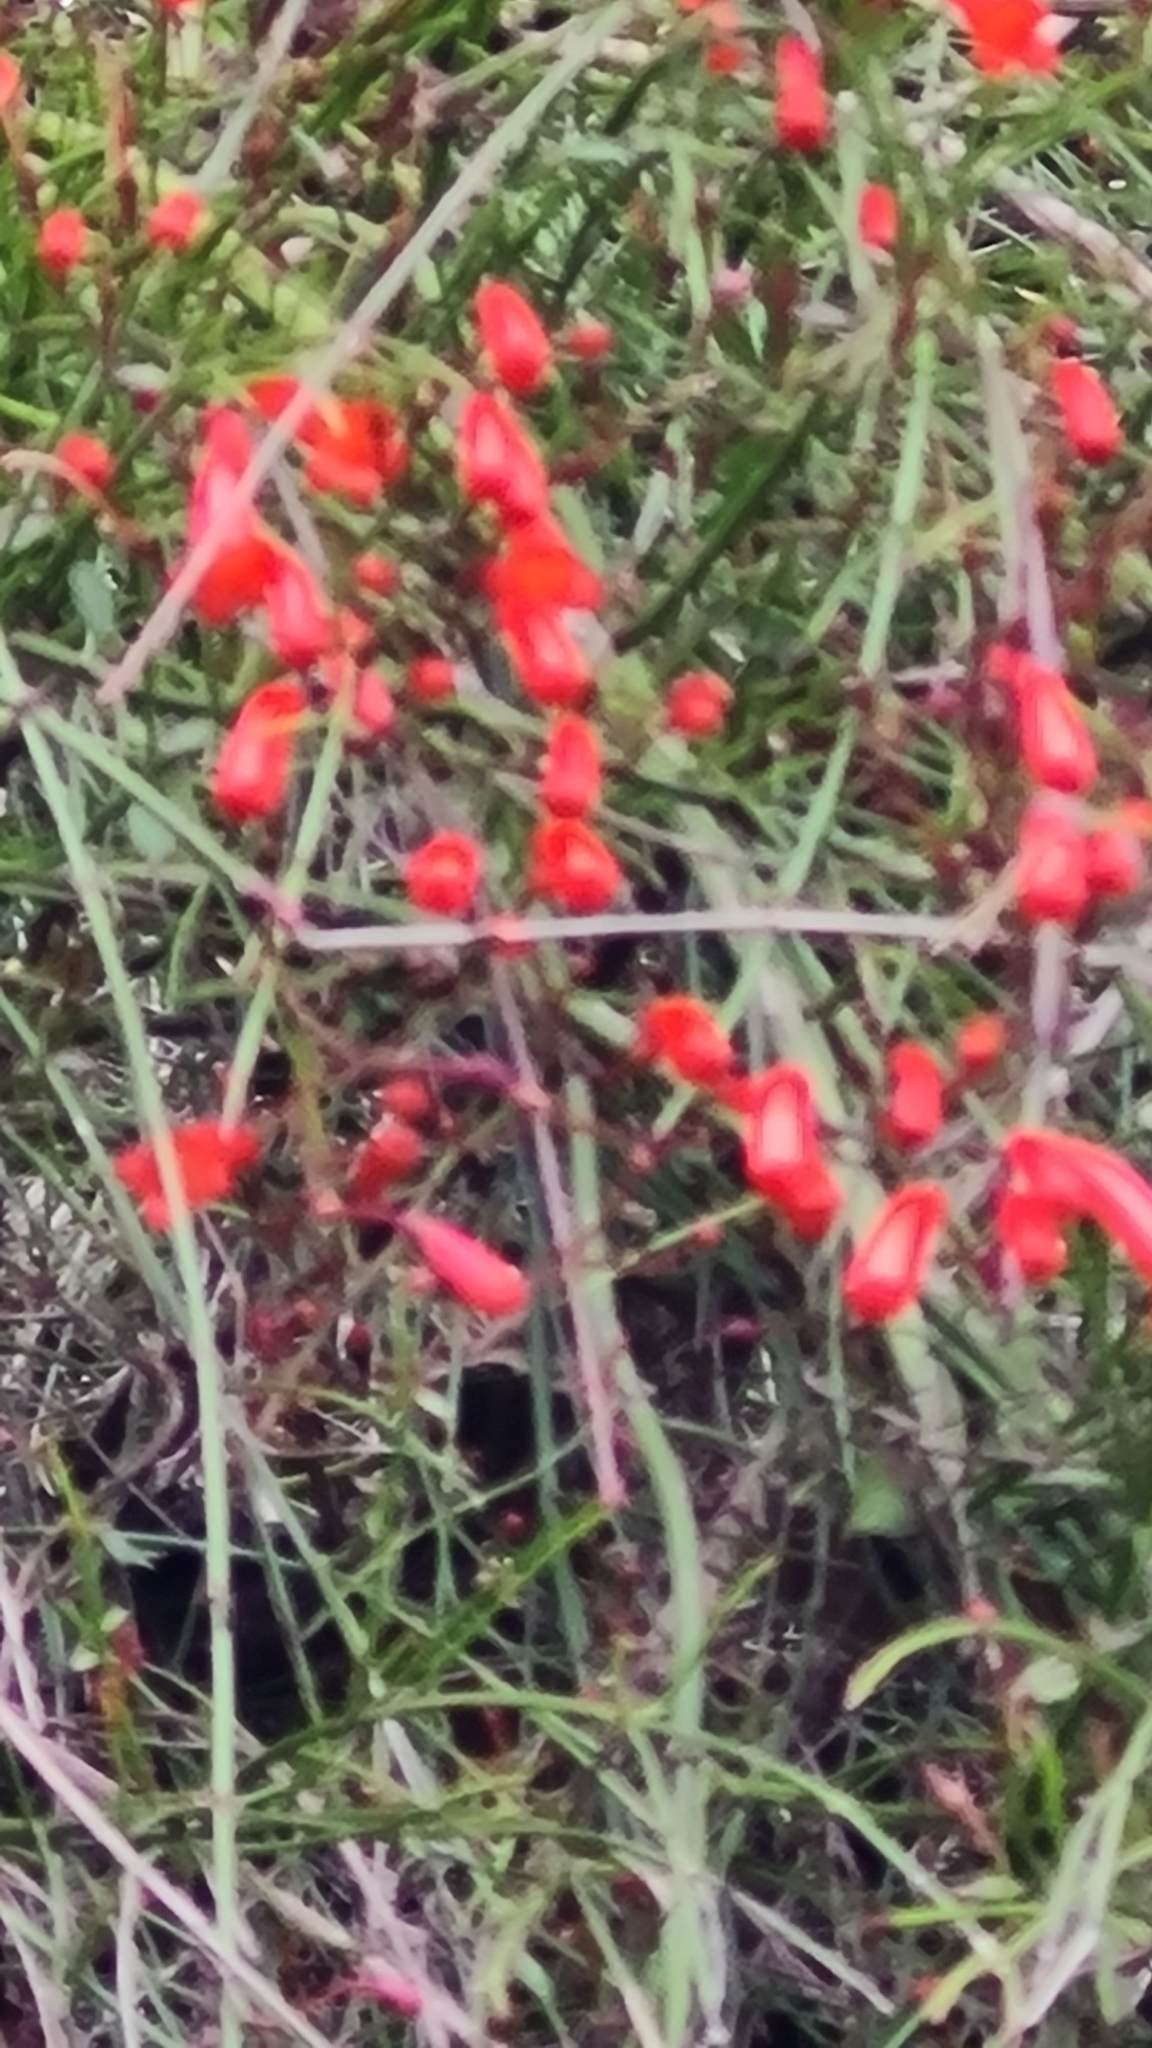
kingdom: Plantae
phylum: Tracheophyta
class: Magnoliopsida
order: Lamiales
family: Plantaginaceae
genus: Russelia
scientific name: Russelia equisetiformis
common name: Fountainbush
